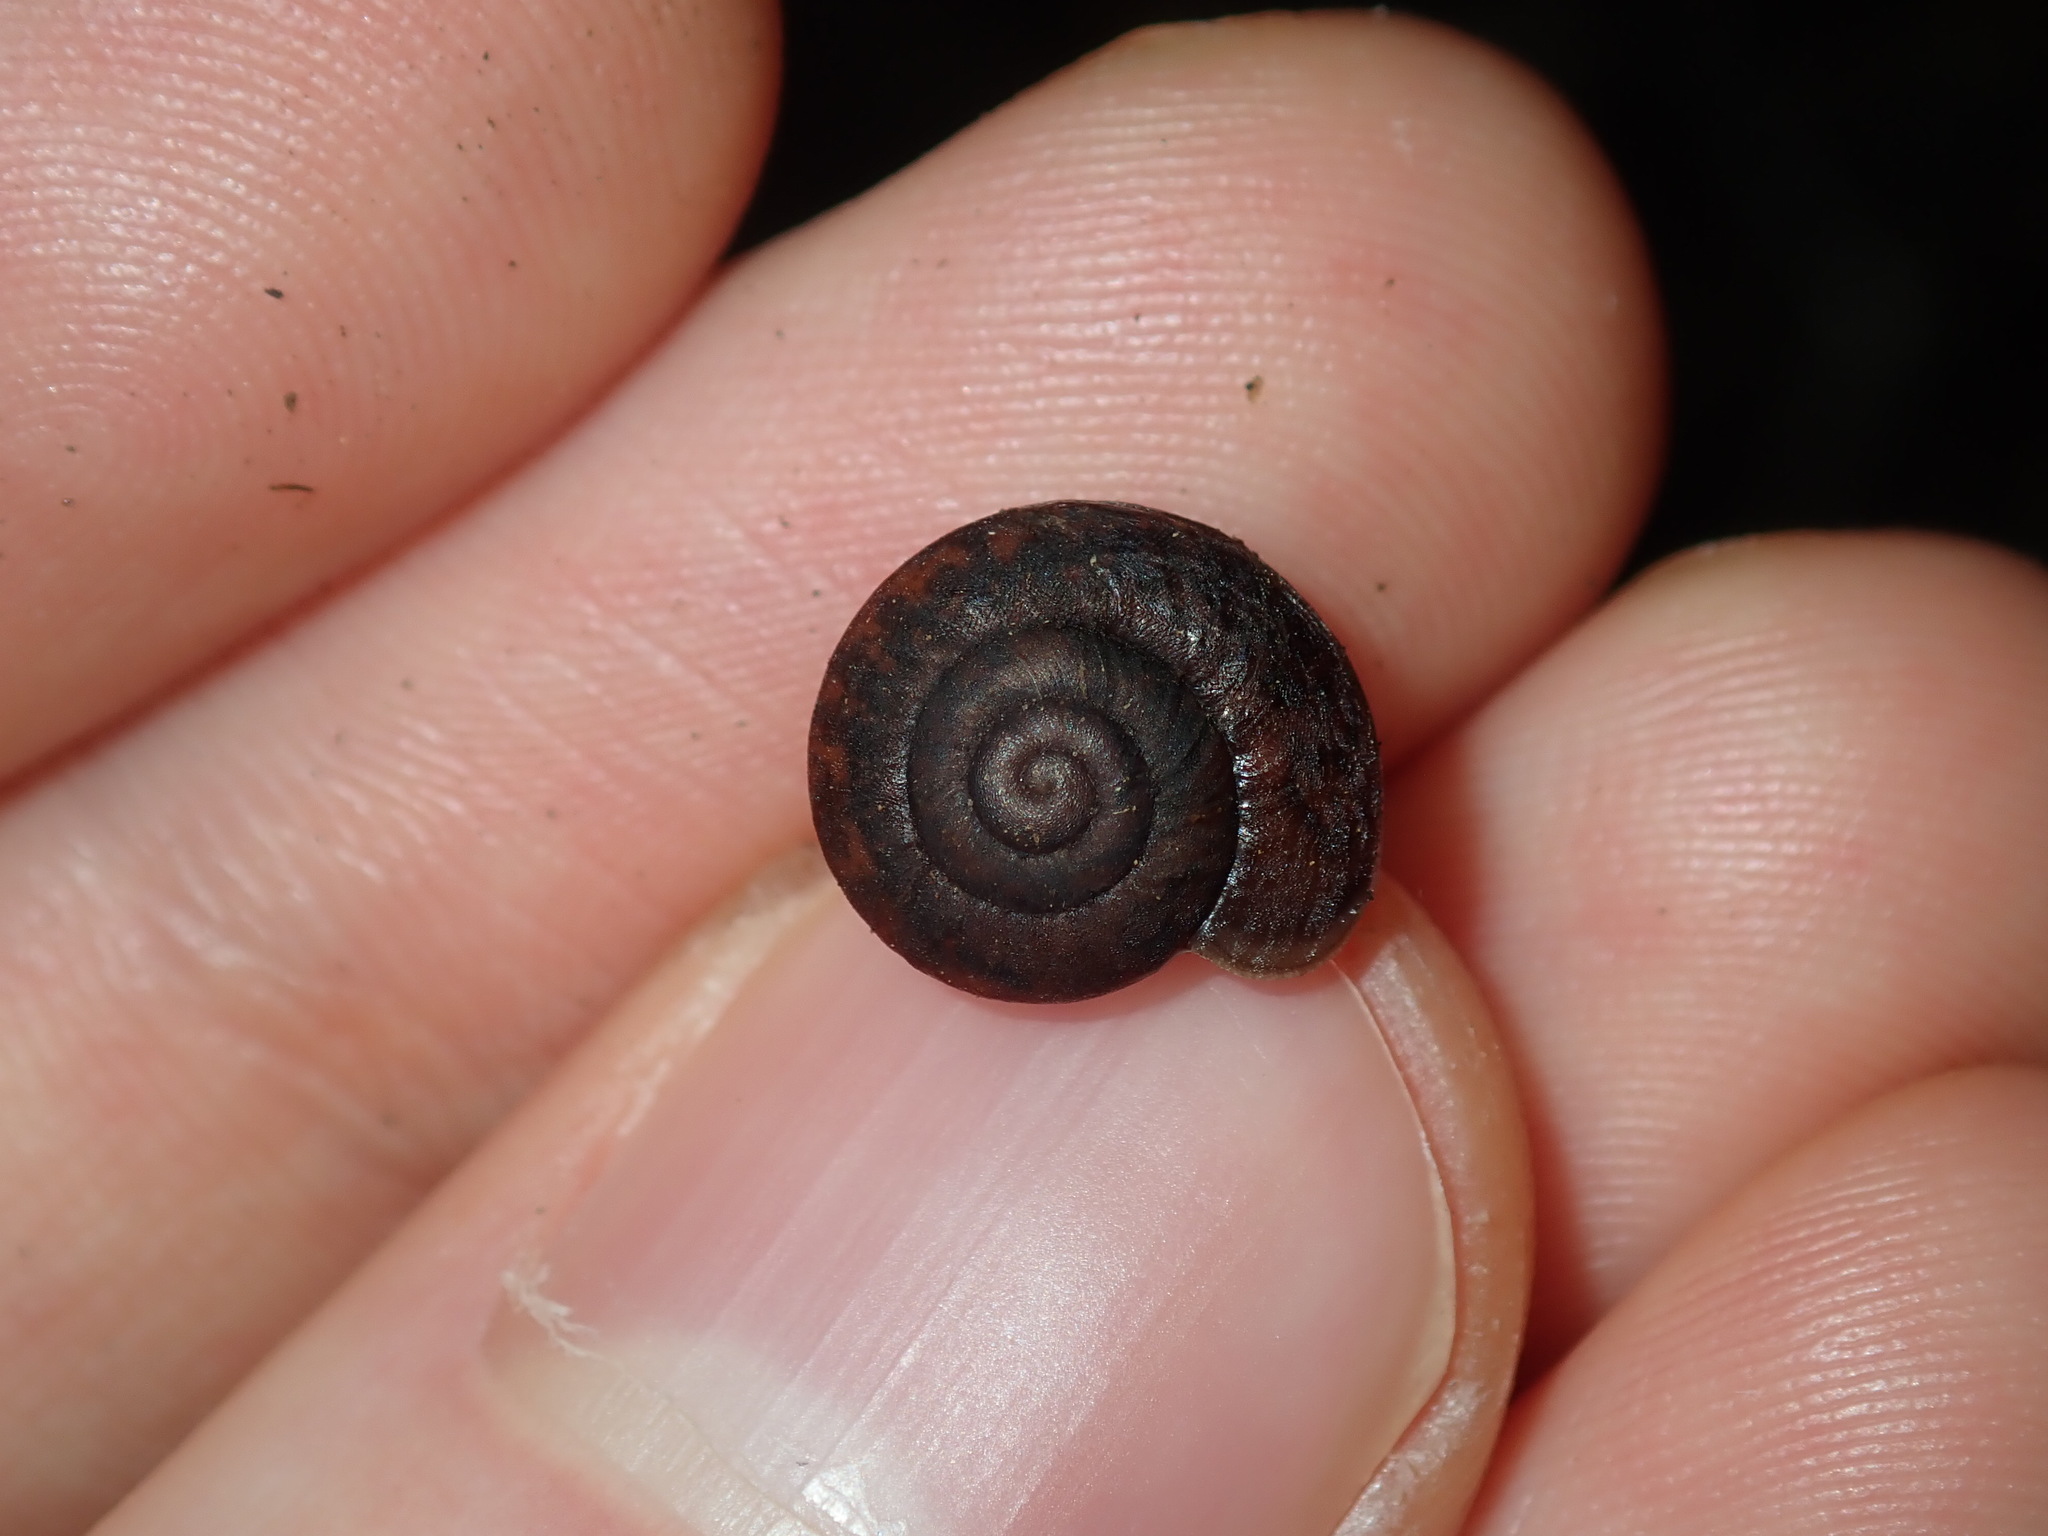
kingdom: Animalia
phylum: Mollusca
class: Gastropoda
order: Stylommatophora
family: Camaenidae
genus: Sauroconcha
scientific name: Sauroconcha sheai
